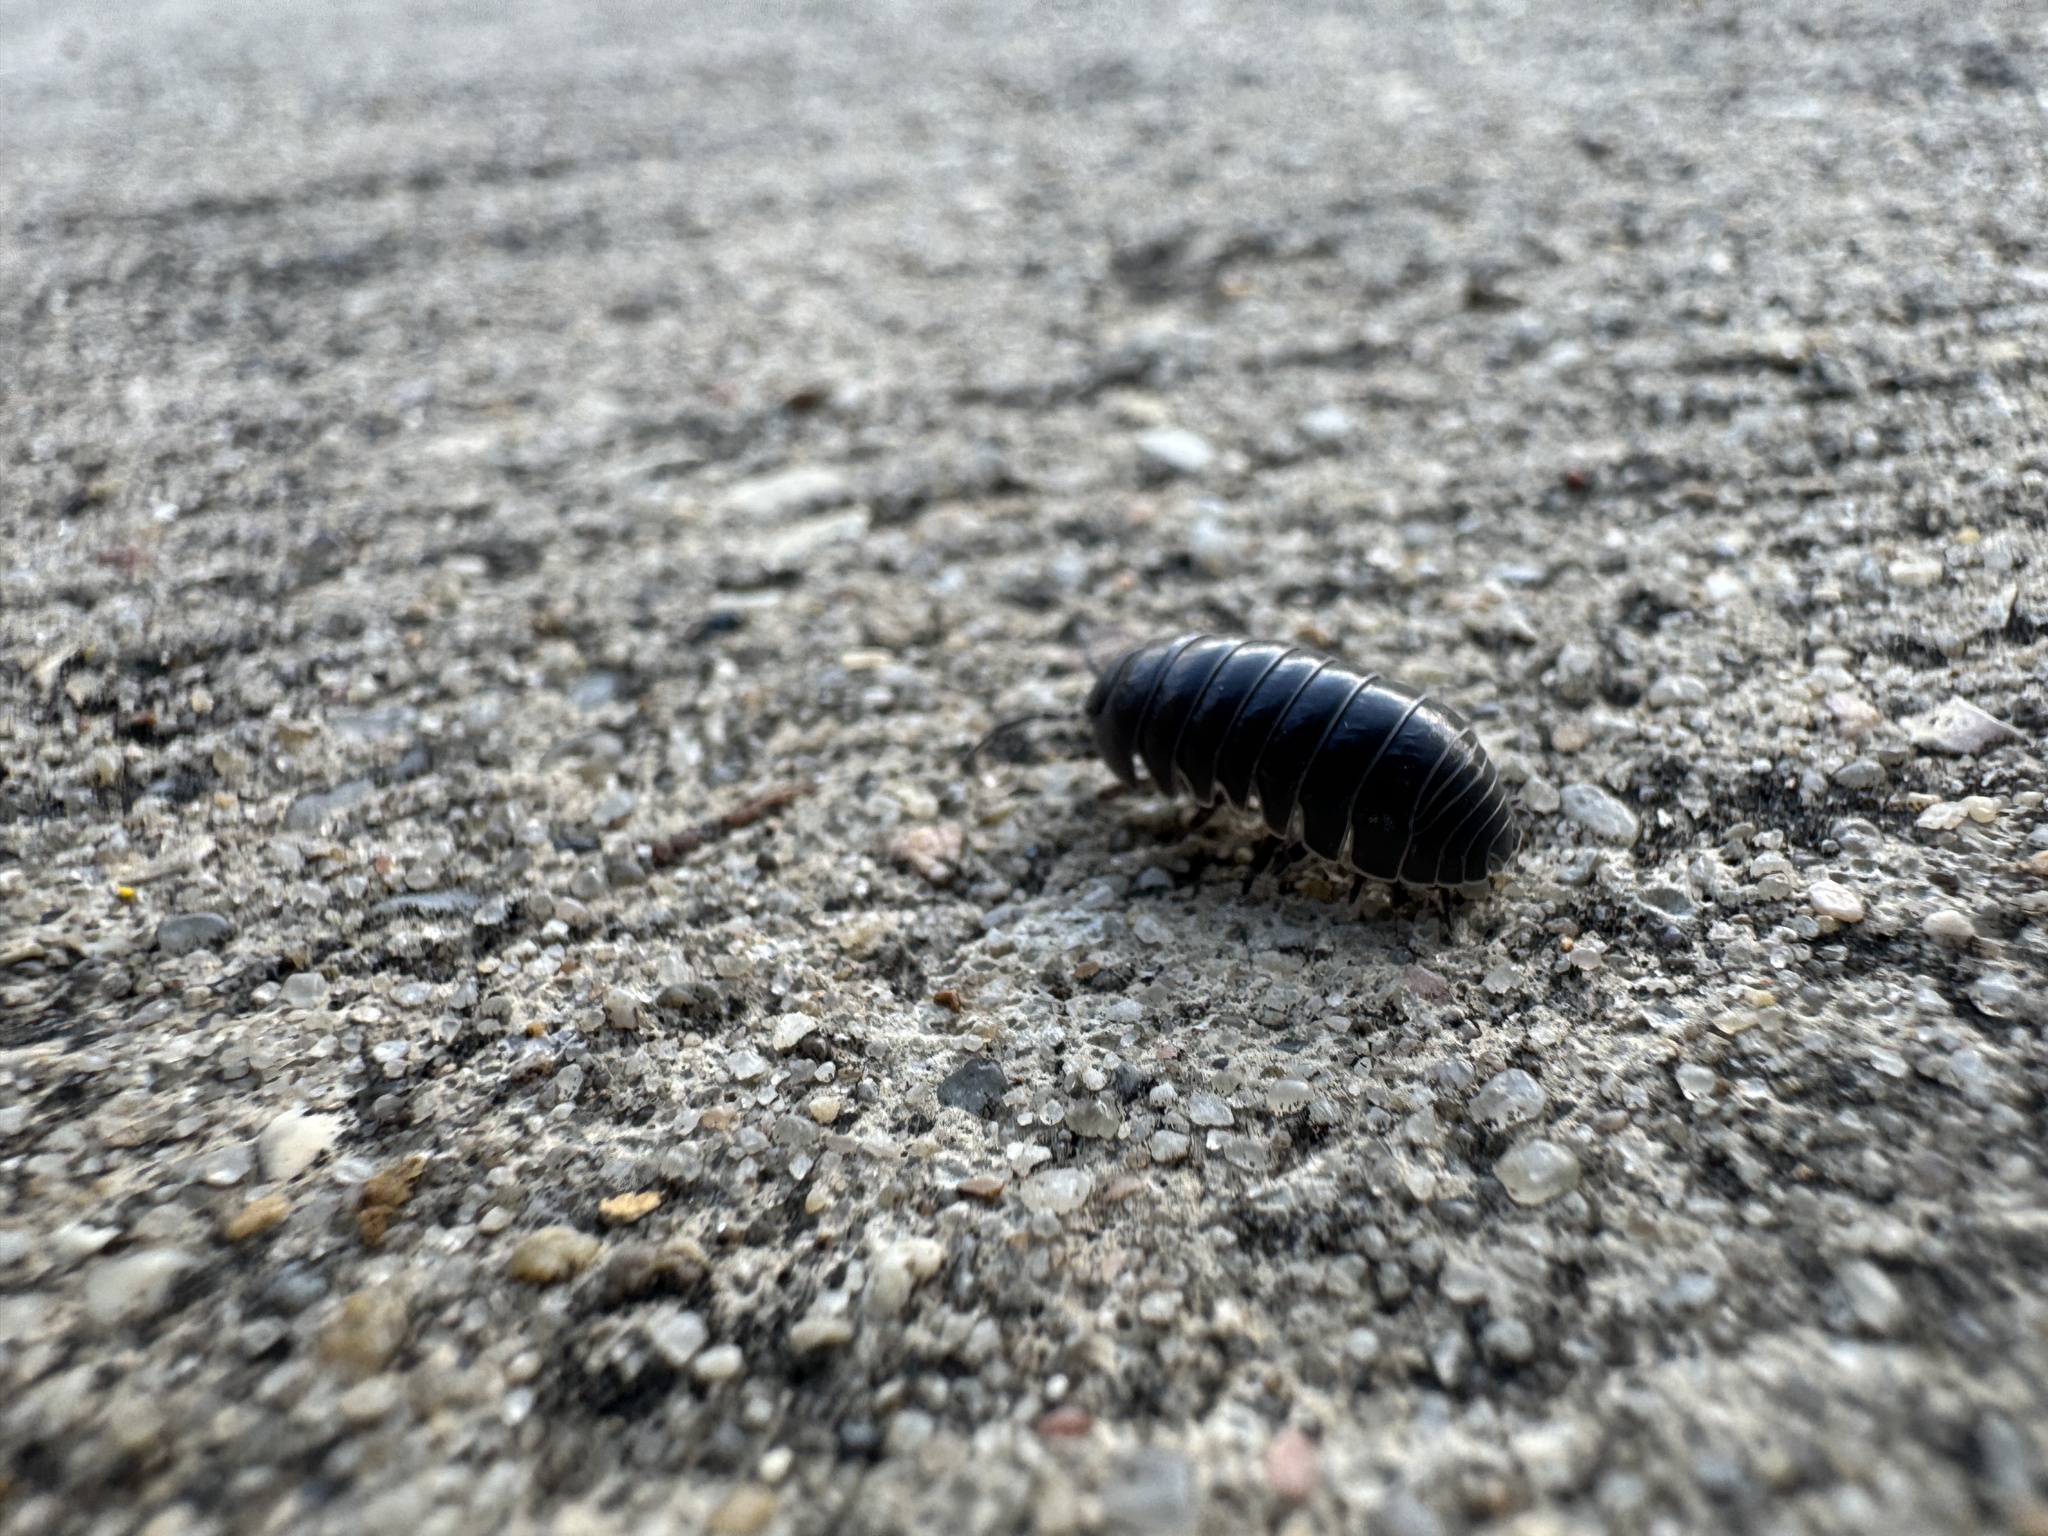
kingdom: Animalia
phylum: Arthropoda
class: Malacostraca
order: Isopoda
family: Armadillidiidae
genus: Armadillidium
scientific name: Armadillidium vulgare
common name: Common pill woodlouse
